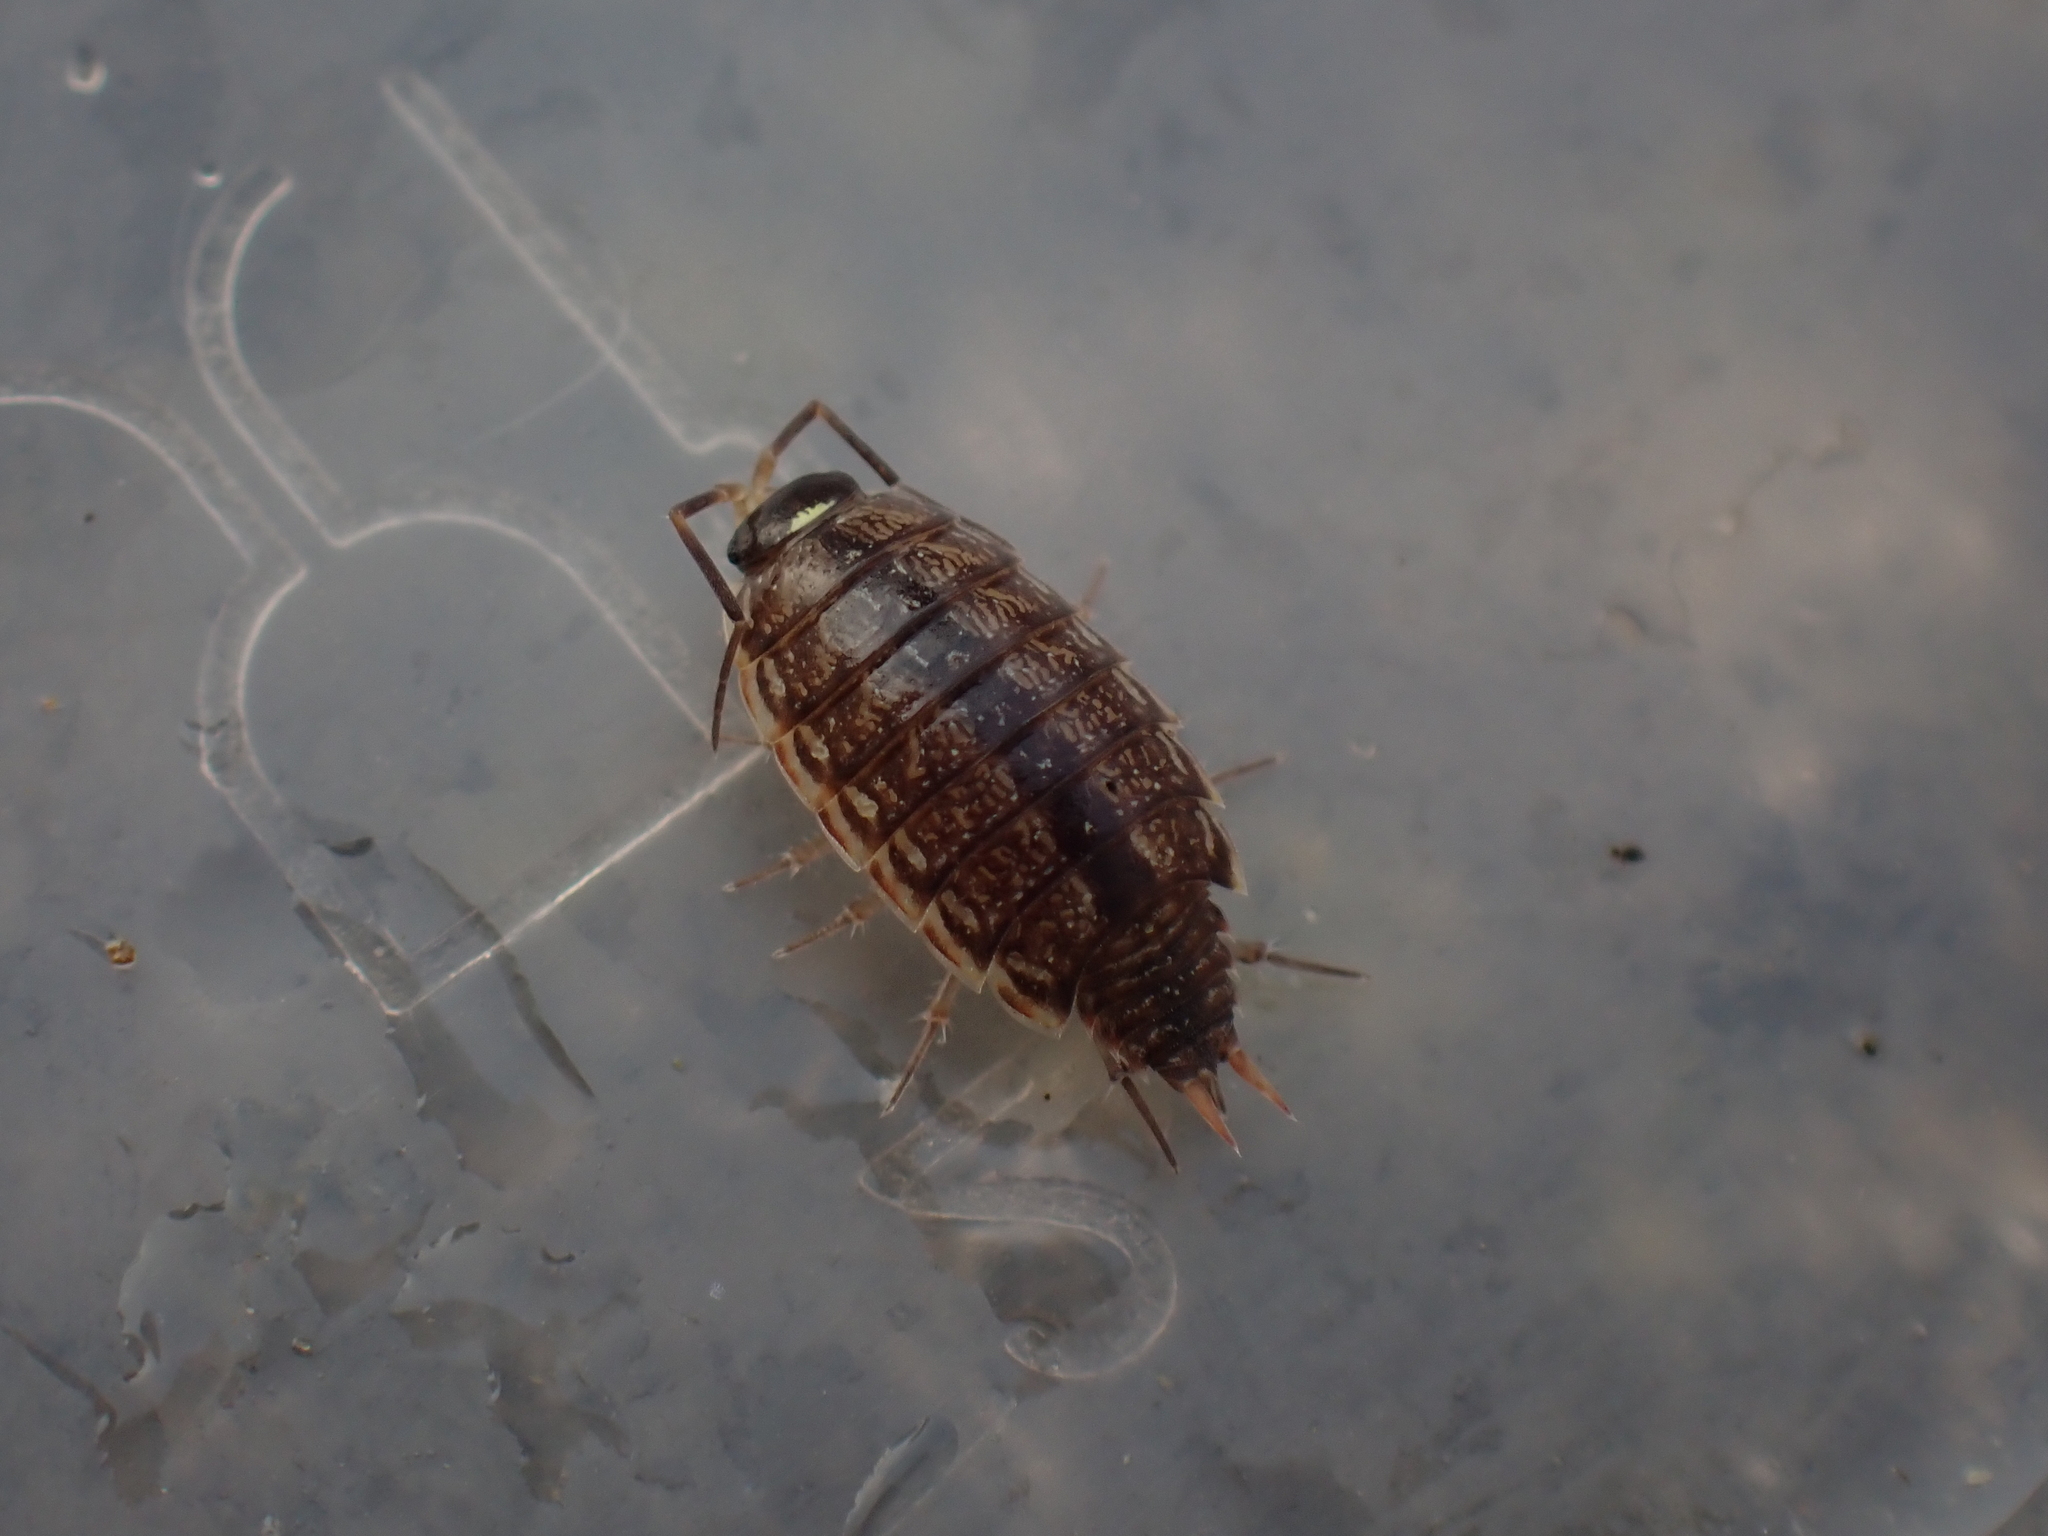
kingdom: Animalia
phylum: Arthropoda
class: Malacostraca
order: Isopoda
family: Philosciidae
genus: Philoscia
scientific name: Philoscia muscorum
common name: Common striped woodlouse
